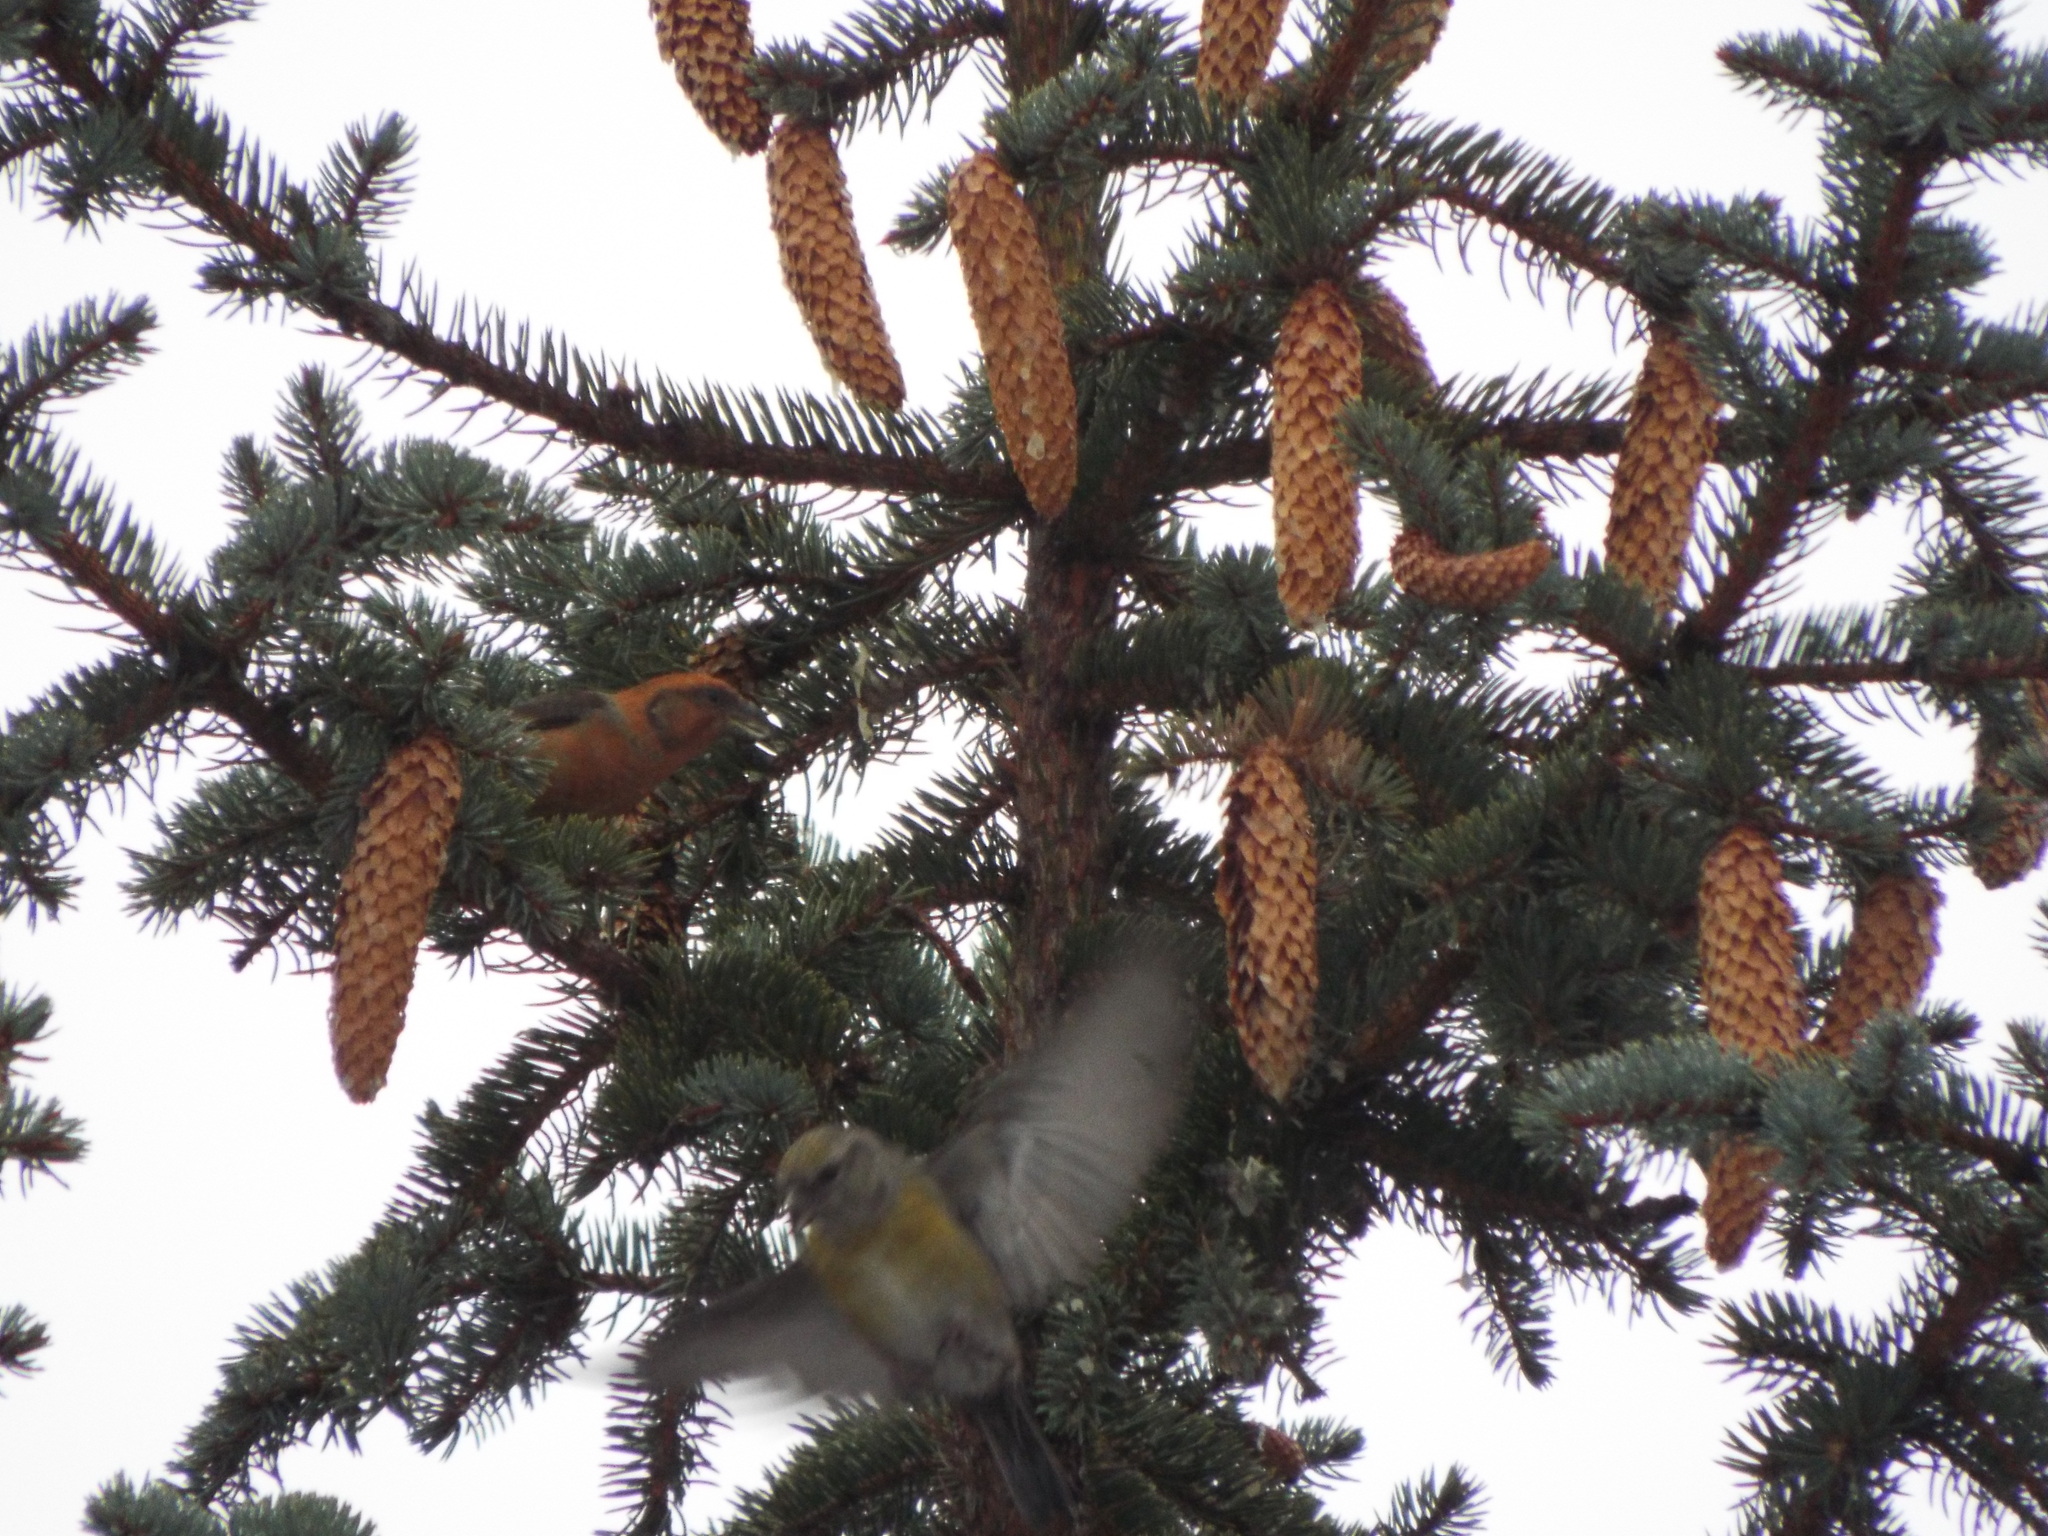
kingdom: Animalia
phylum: Chordata
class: Aves
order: Passeriformes
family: Fringillidae
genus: Loxia
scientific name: Loxia curvirostra
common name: Red crossbill
